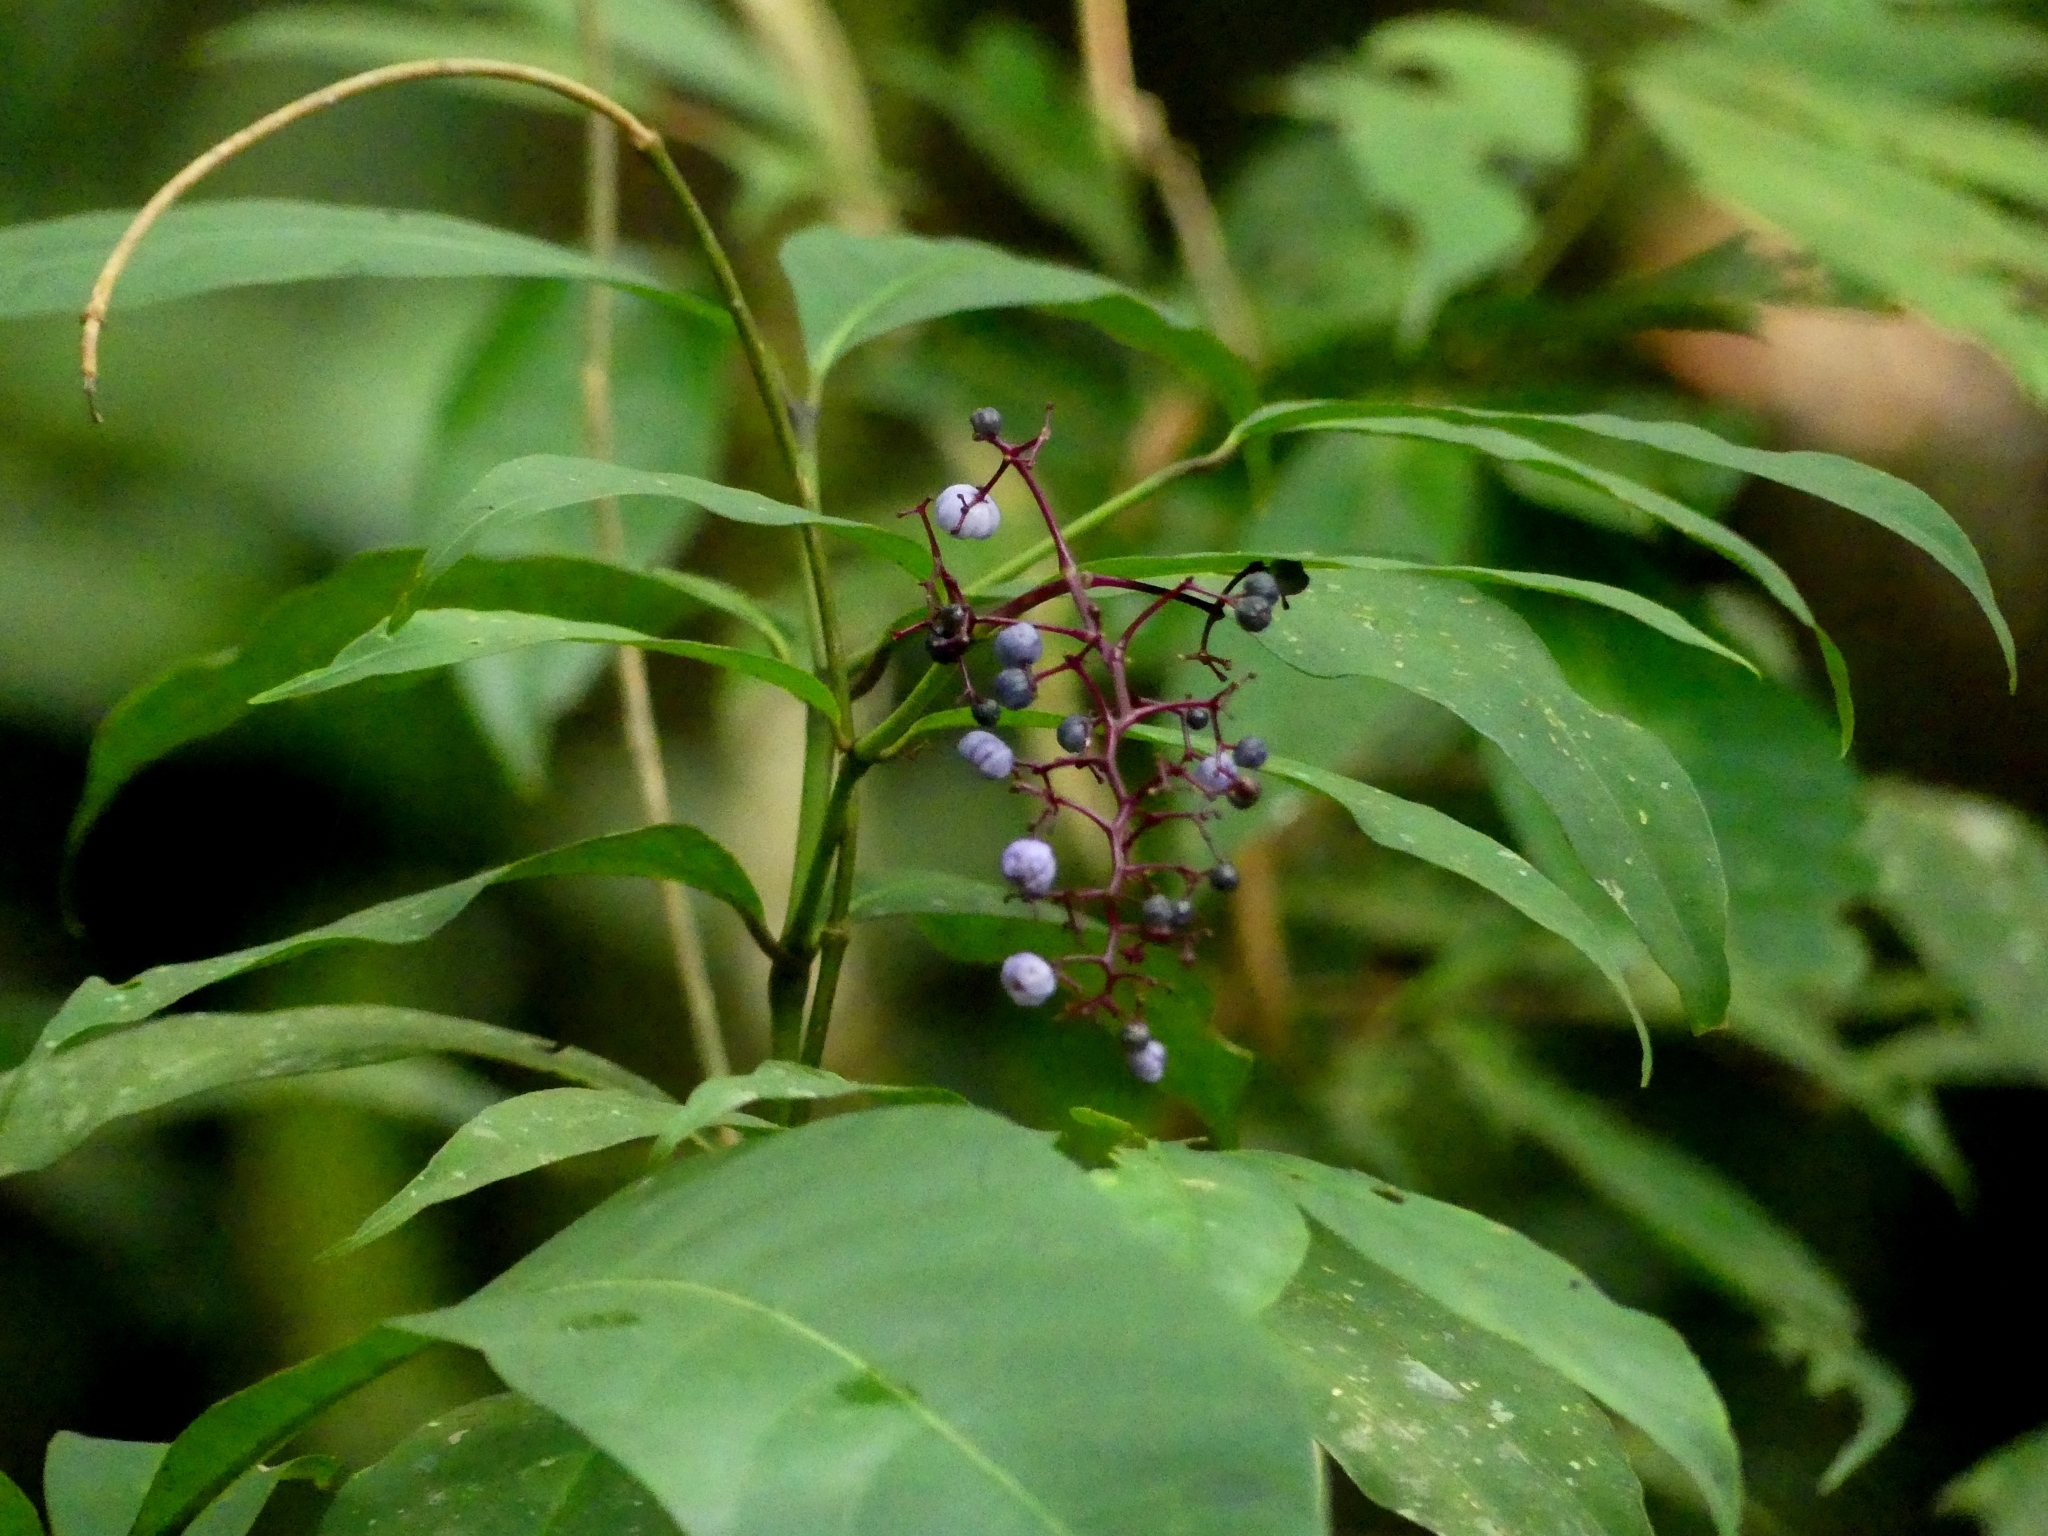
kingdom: Plantae
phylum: Tracheophyta
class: Magnoliopsida
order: Gentianales
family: Rubiaceae
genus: Palicourea
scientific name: Palicourea
